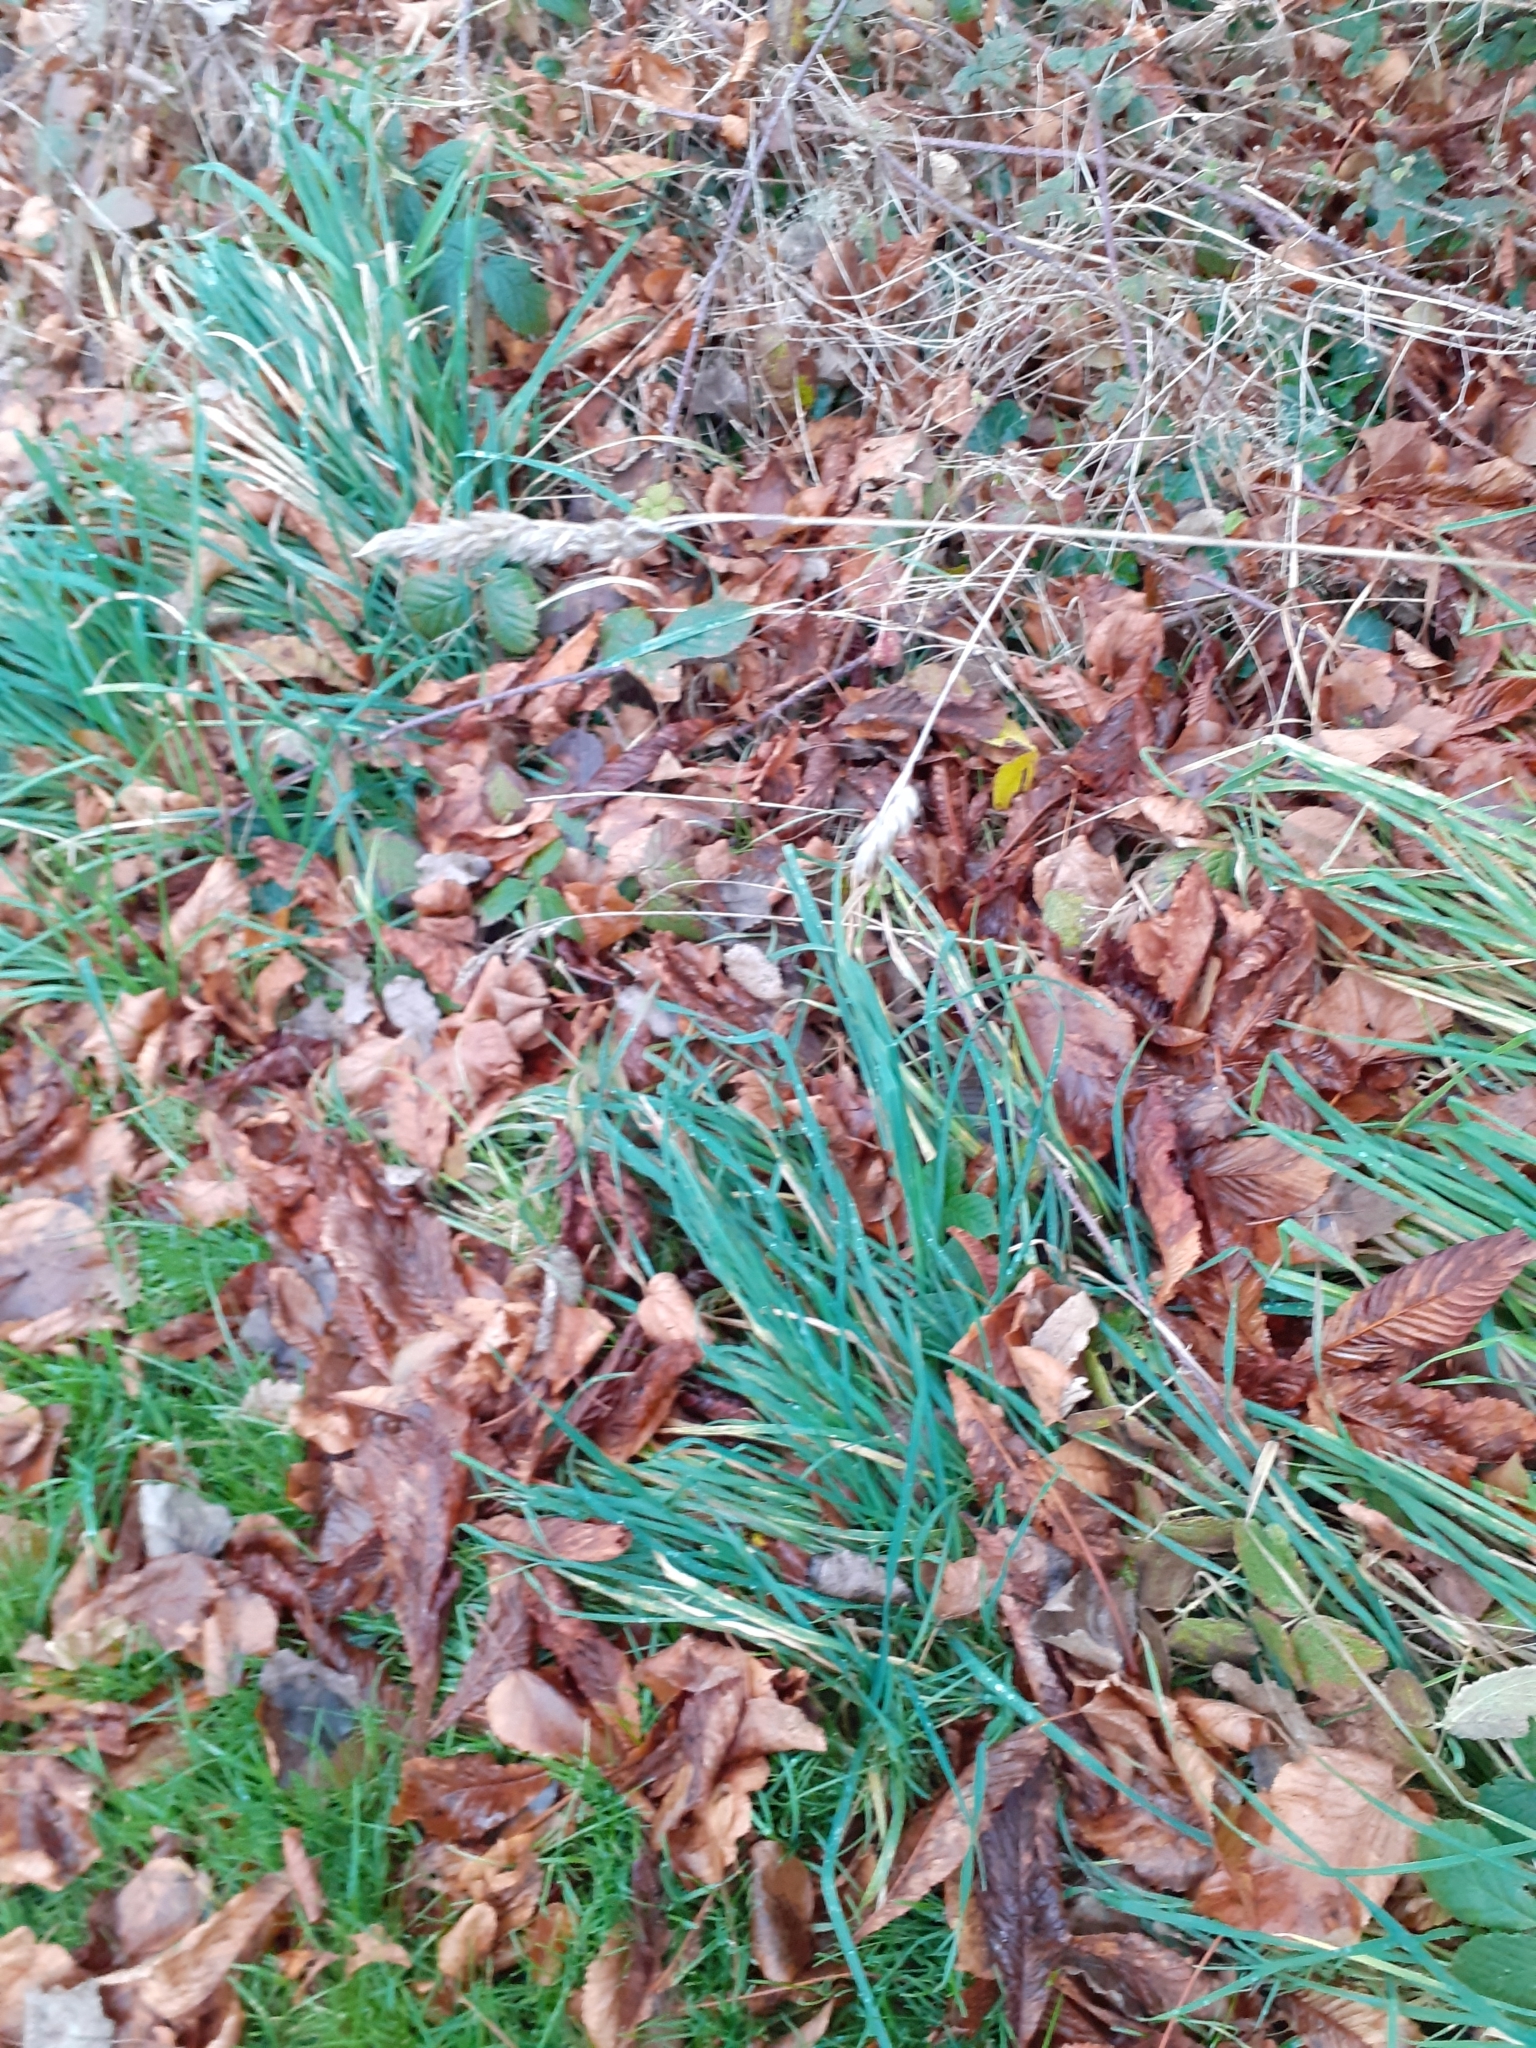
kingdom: Plantae
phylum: Tracheophyta
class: Liliopsida
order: Poales
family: Poaceae
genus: Dactylis
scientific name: Dactylis glomerata
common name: Orchardgrass
